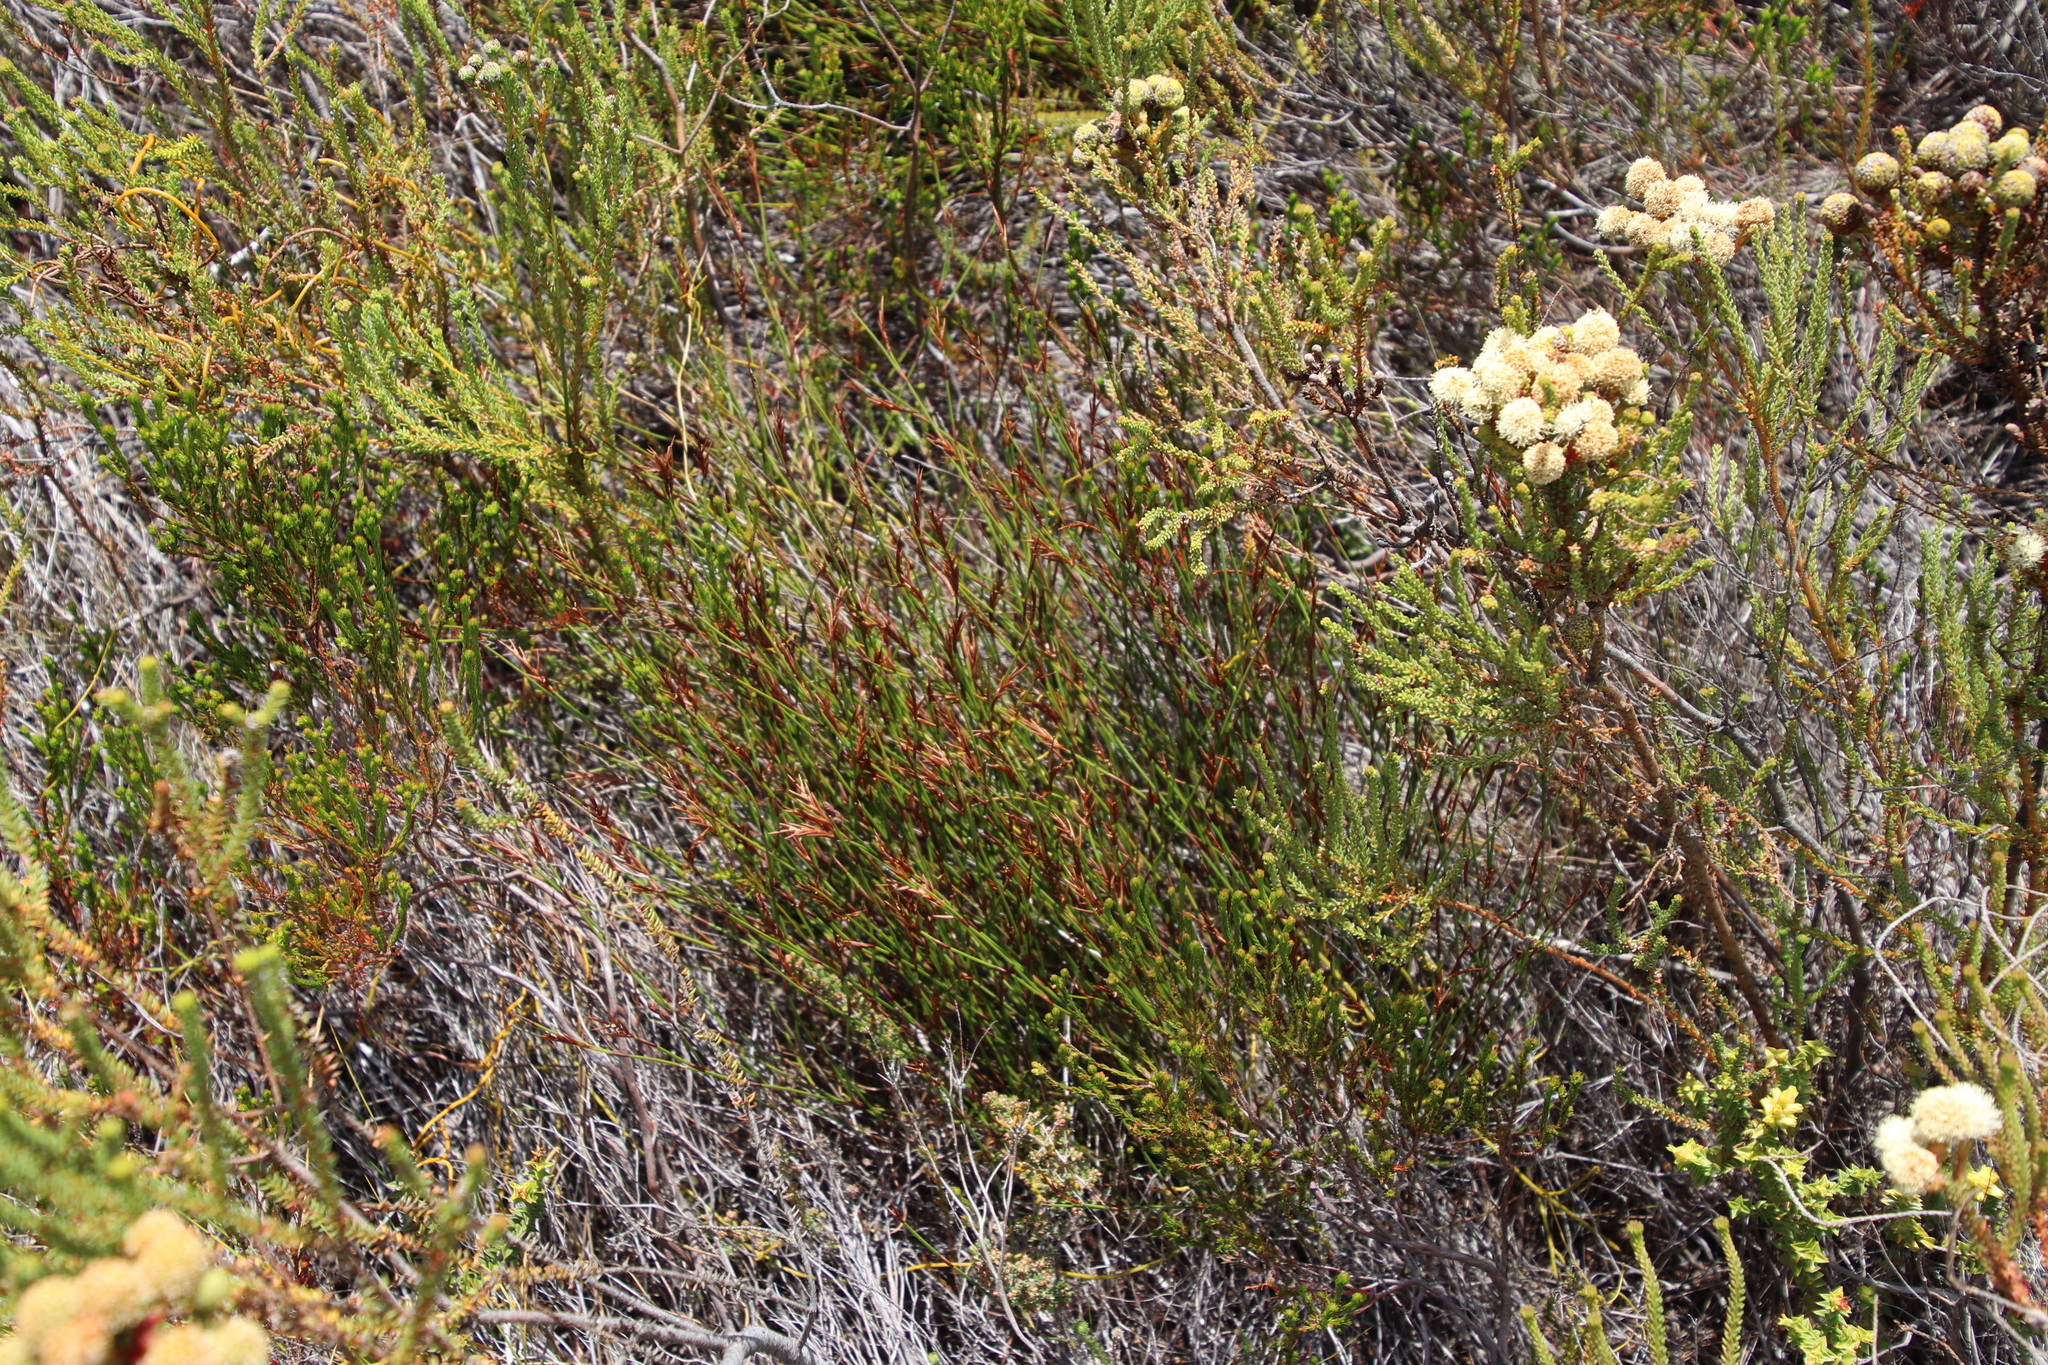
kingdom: Plantae
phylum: Tracheophyta
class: Liliopsida
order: Poales
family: Restionaceae
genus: Soroveta
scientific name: Soroveta ambigua
